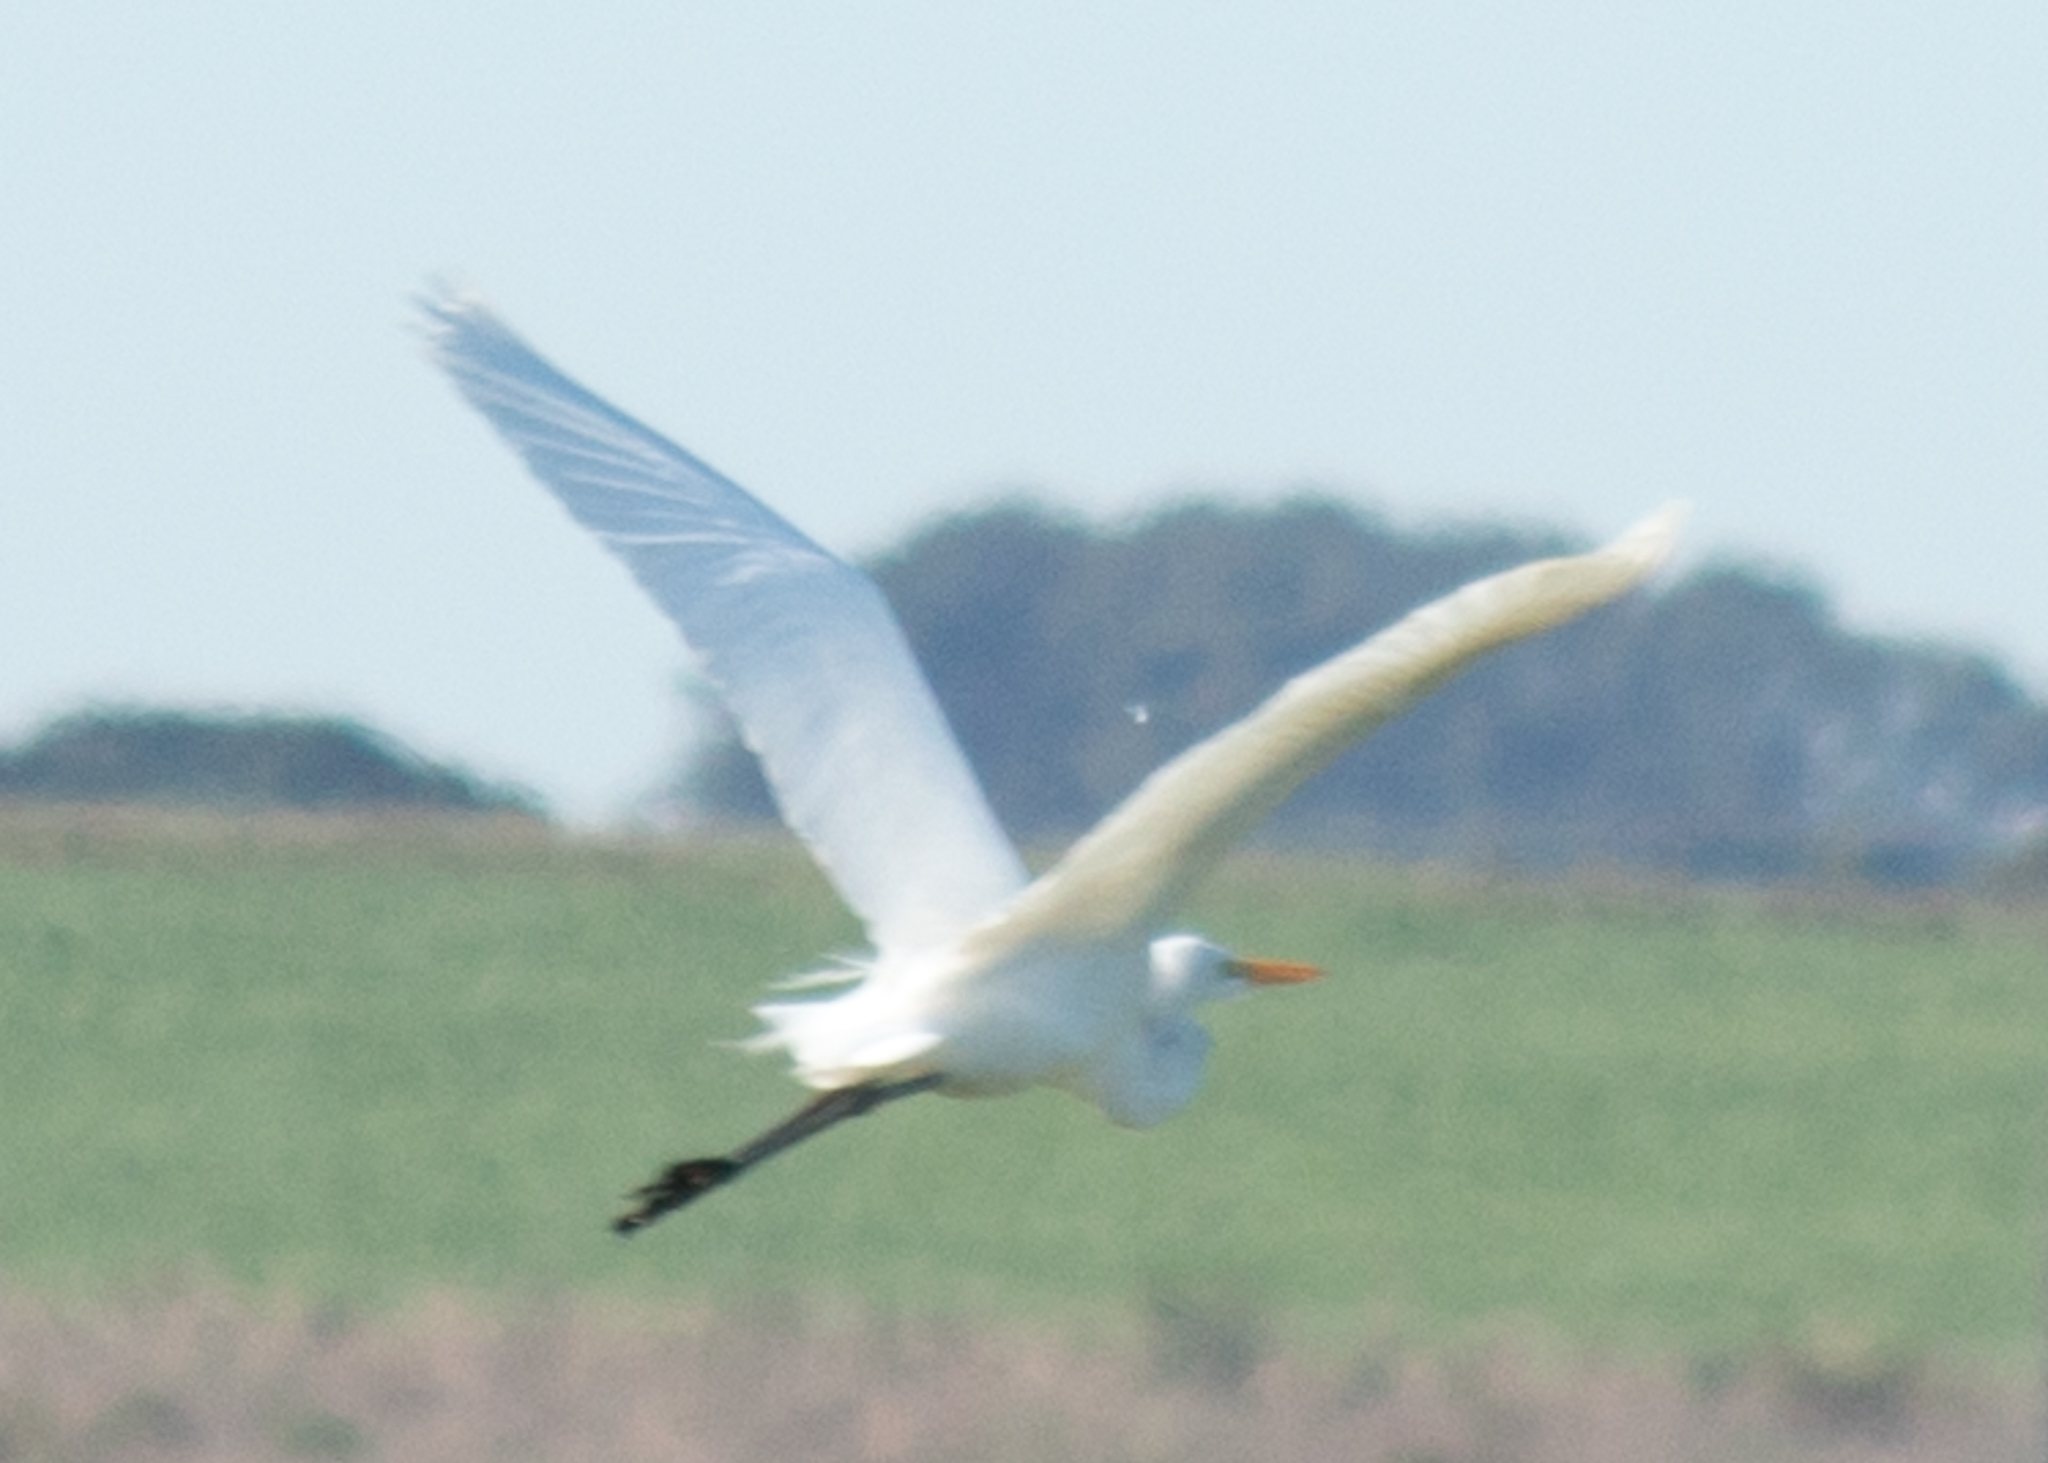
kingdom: Animalia
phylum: Chordata
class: Aves
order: Pelecaniformes
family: Ardeidae
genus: Ardea
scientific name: Ardea alba
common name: Great egret
